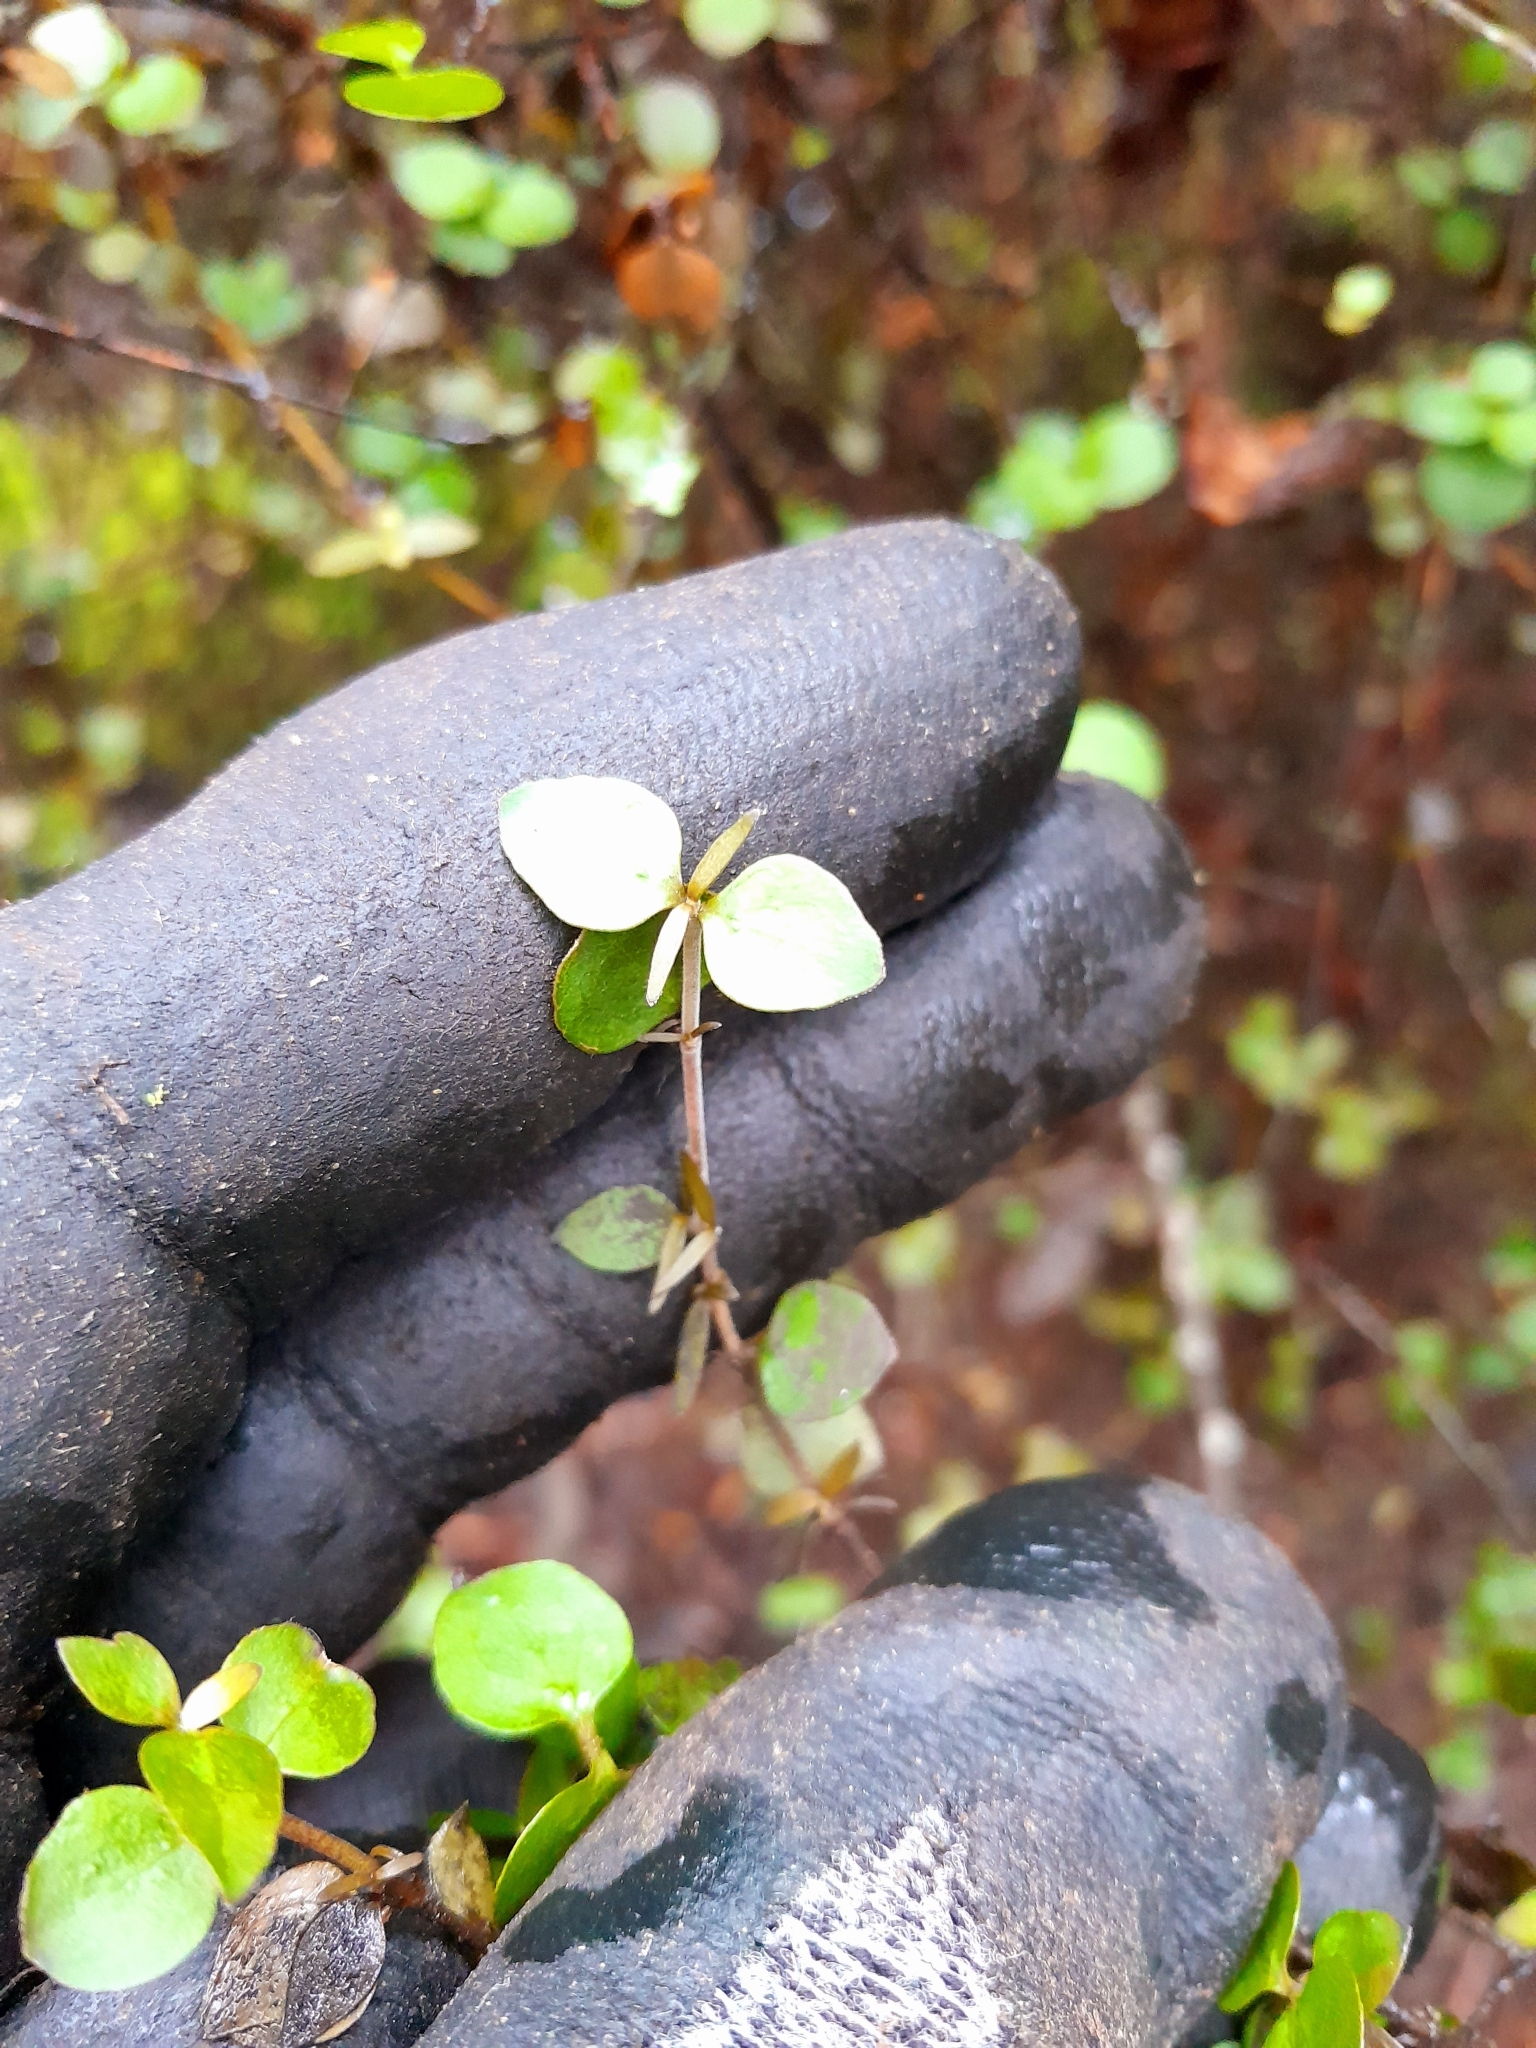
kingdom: Plantae
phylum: Tracheophyta
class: Magnoliopsida
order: Gentianales
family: Rubiaceae
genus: Coprosma
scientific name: Coprosma rhamnoides
